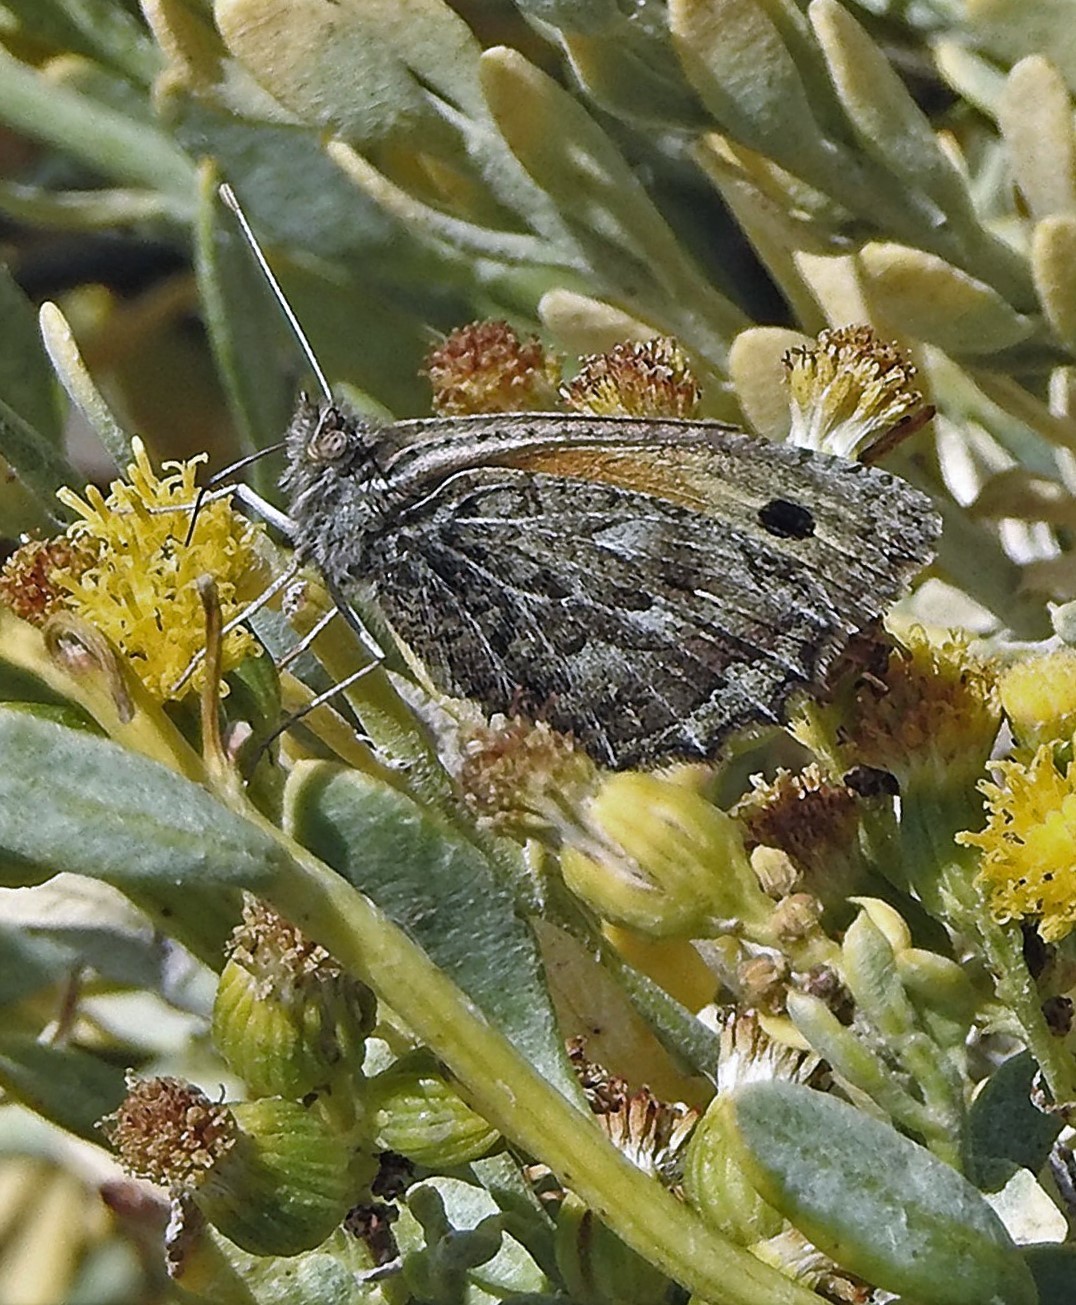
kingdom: Animalia
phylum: Arthropoda
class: Insecta
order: Lepidoptera
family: Nymphalidae
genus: Argyrophorus
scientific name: Argyrophorus
